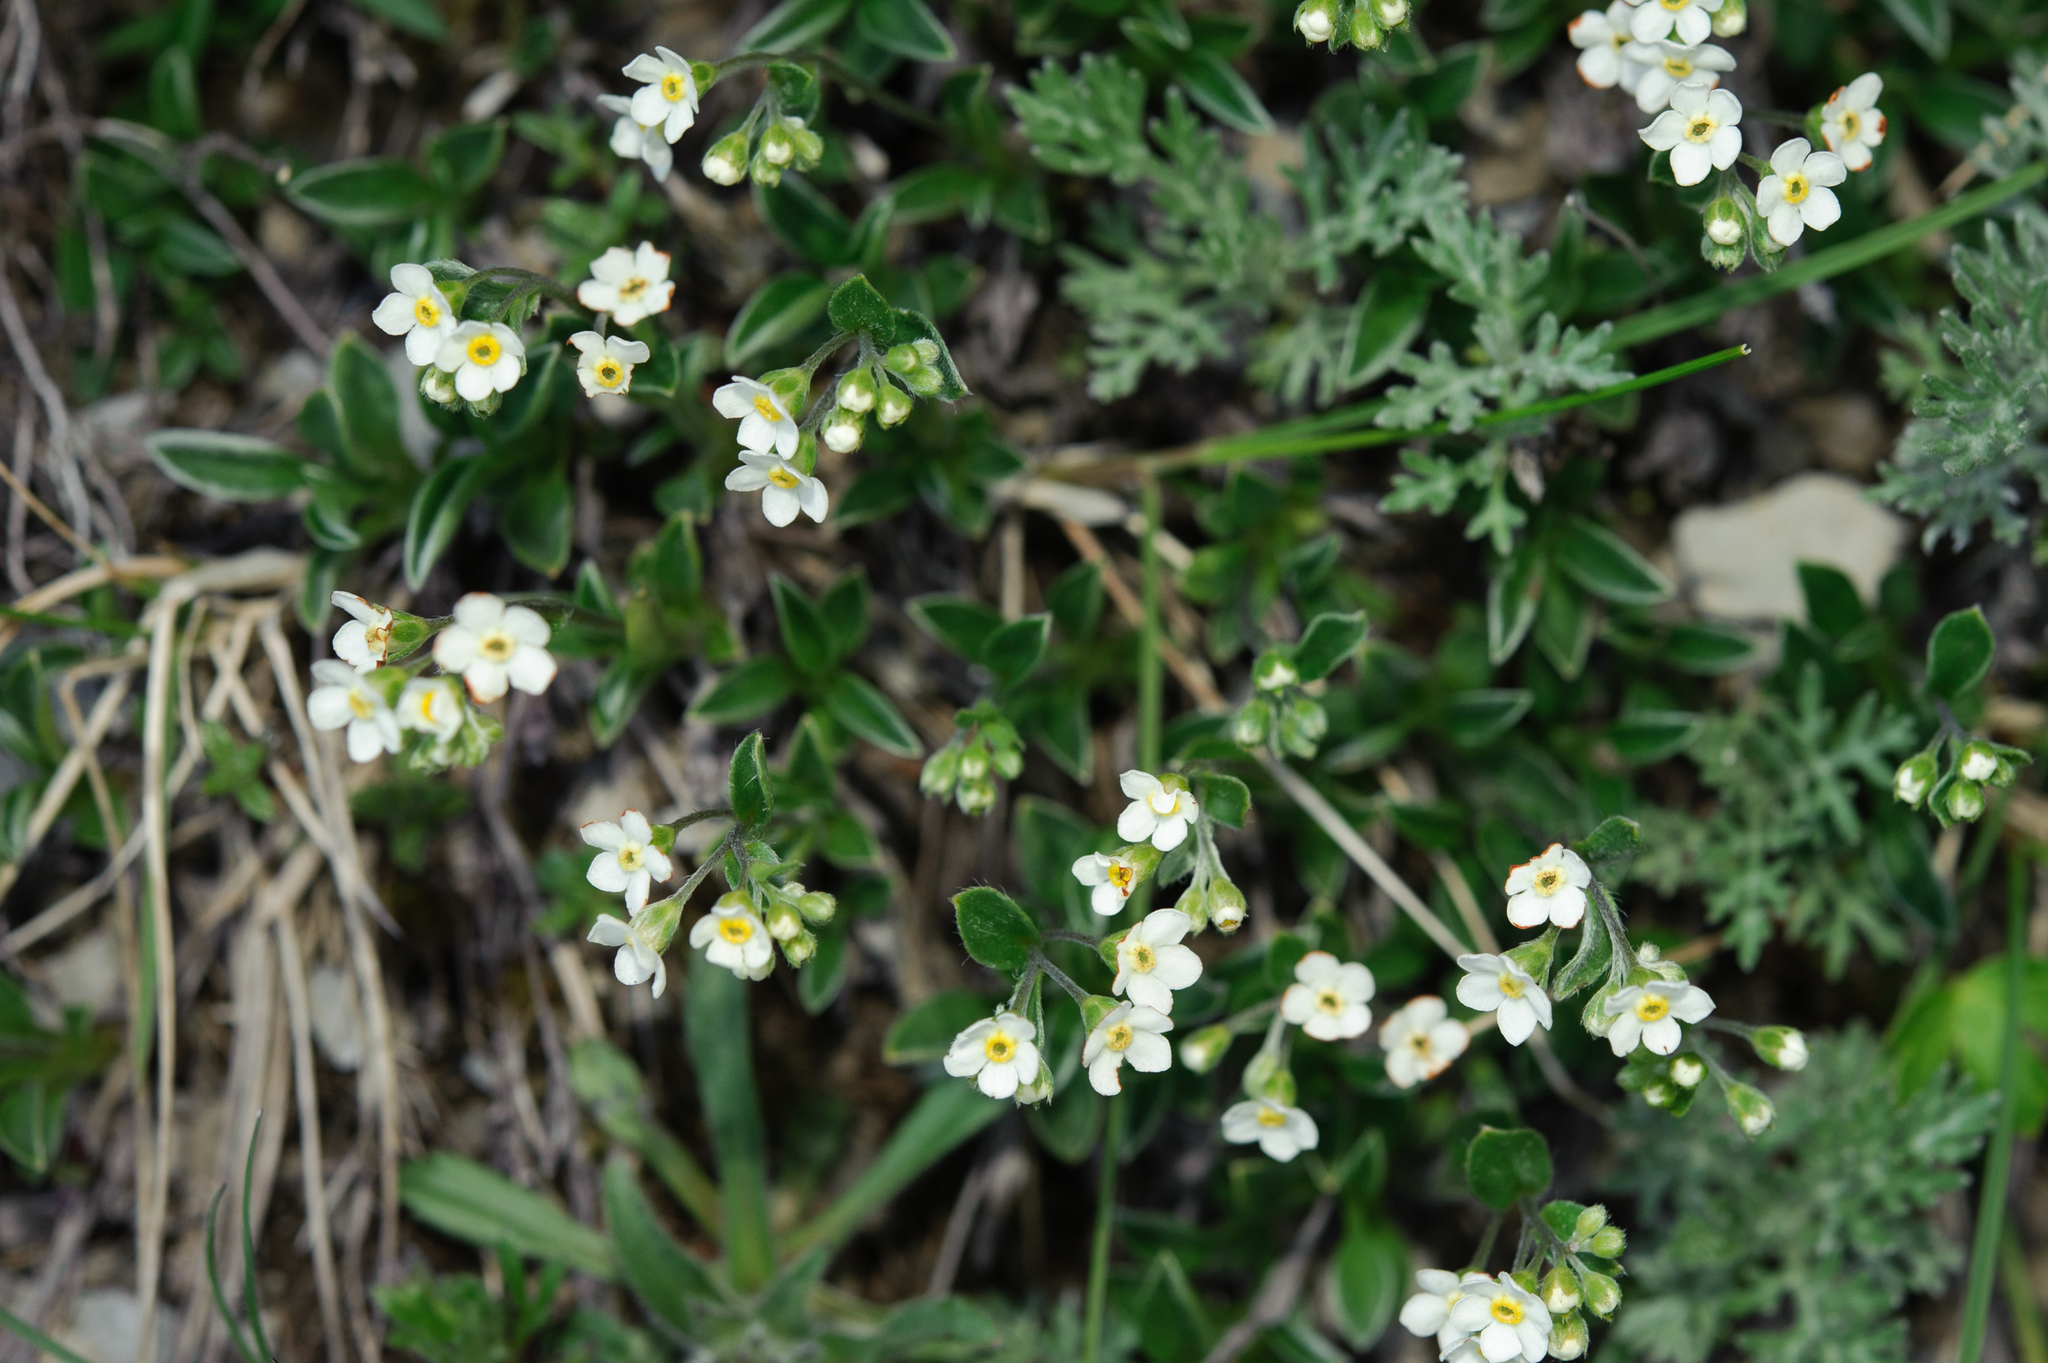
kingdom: Plantae
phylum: Tracheophyta
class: Magnoliopsida
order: Boraginales
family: Boraginaceae
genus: Trigonotis
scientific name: Trigonotis nankotaizanensis
